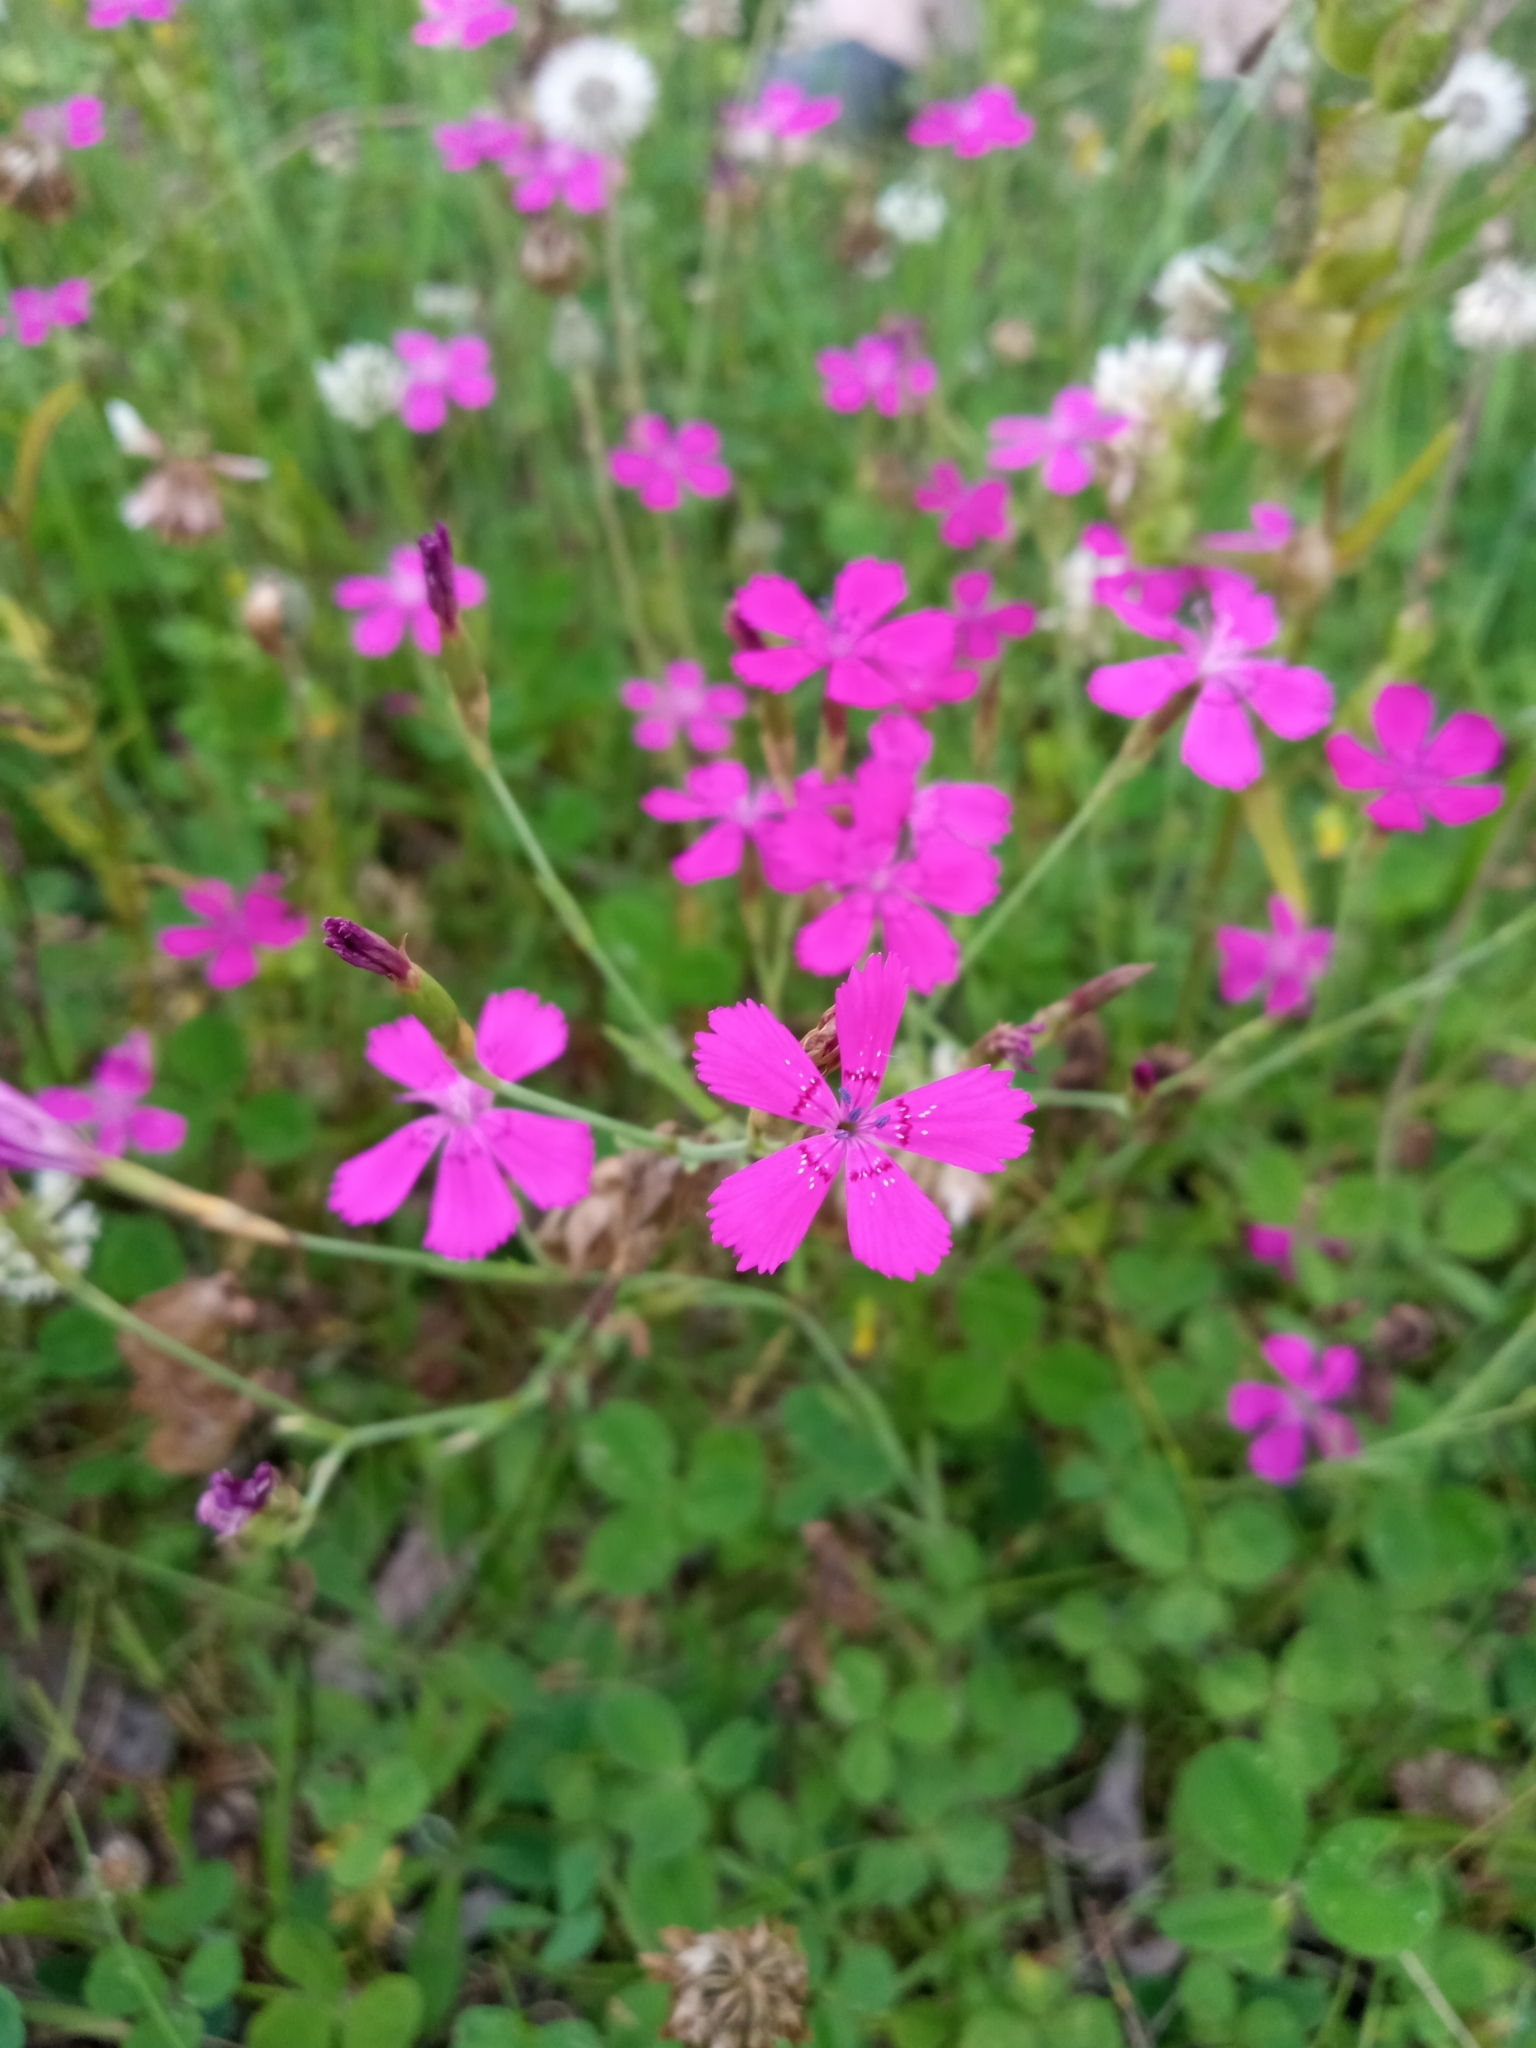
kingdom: Plantae
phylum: Tracheophyta
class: Magnoliopsida
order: Caryophyllales
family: Caryophyllaceae
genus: Dianthus
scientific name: Dianthus deltoides
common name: Maiden pink
